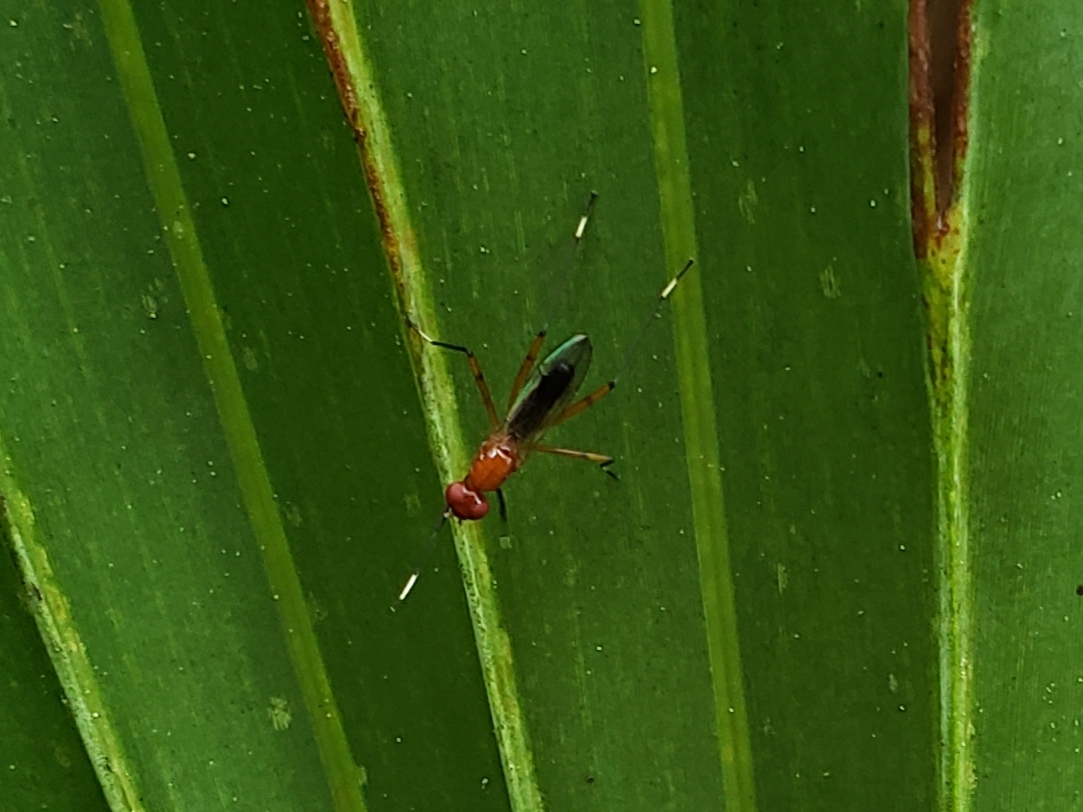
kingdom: Animalia
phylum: Arthropoda
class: Insecta
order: Diptera
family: Micropezidae
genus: Grallipeza
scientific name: Grallipeza nebulosa
